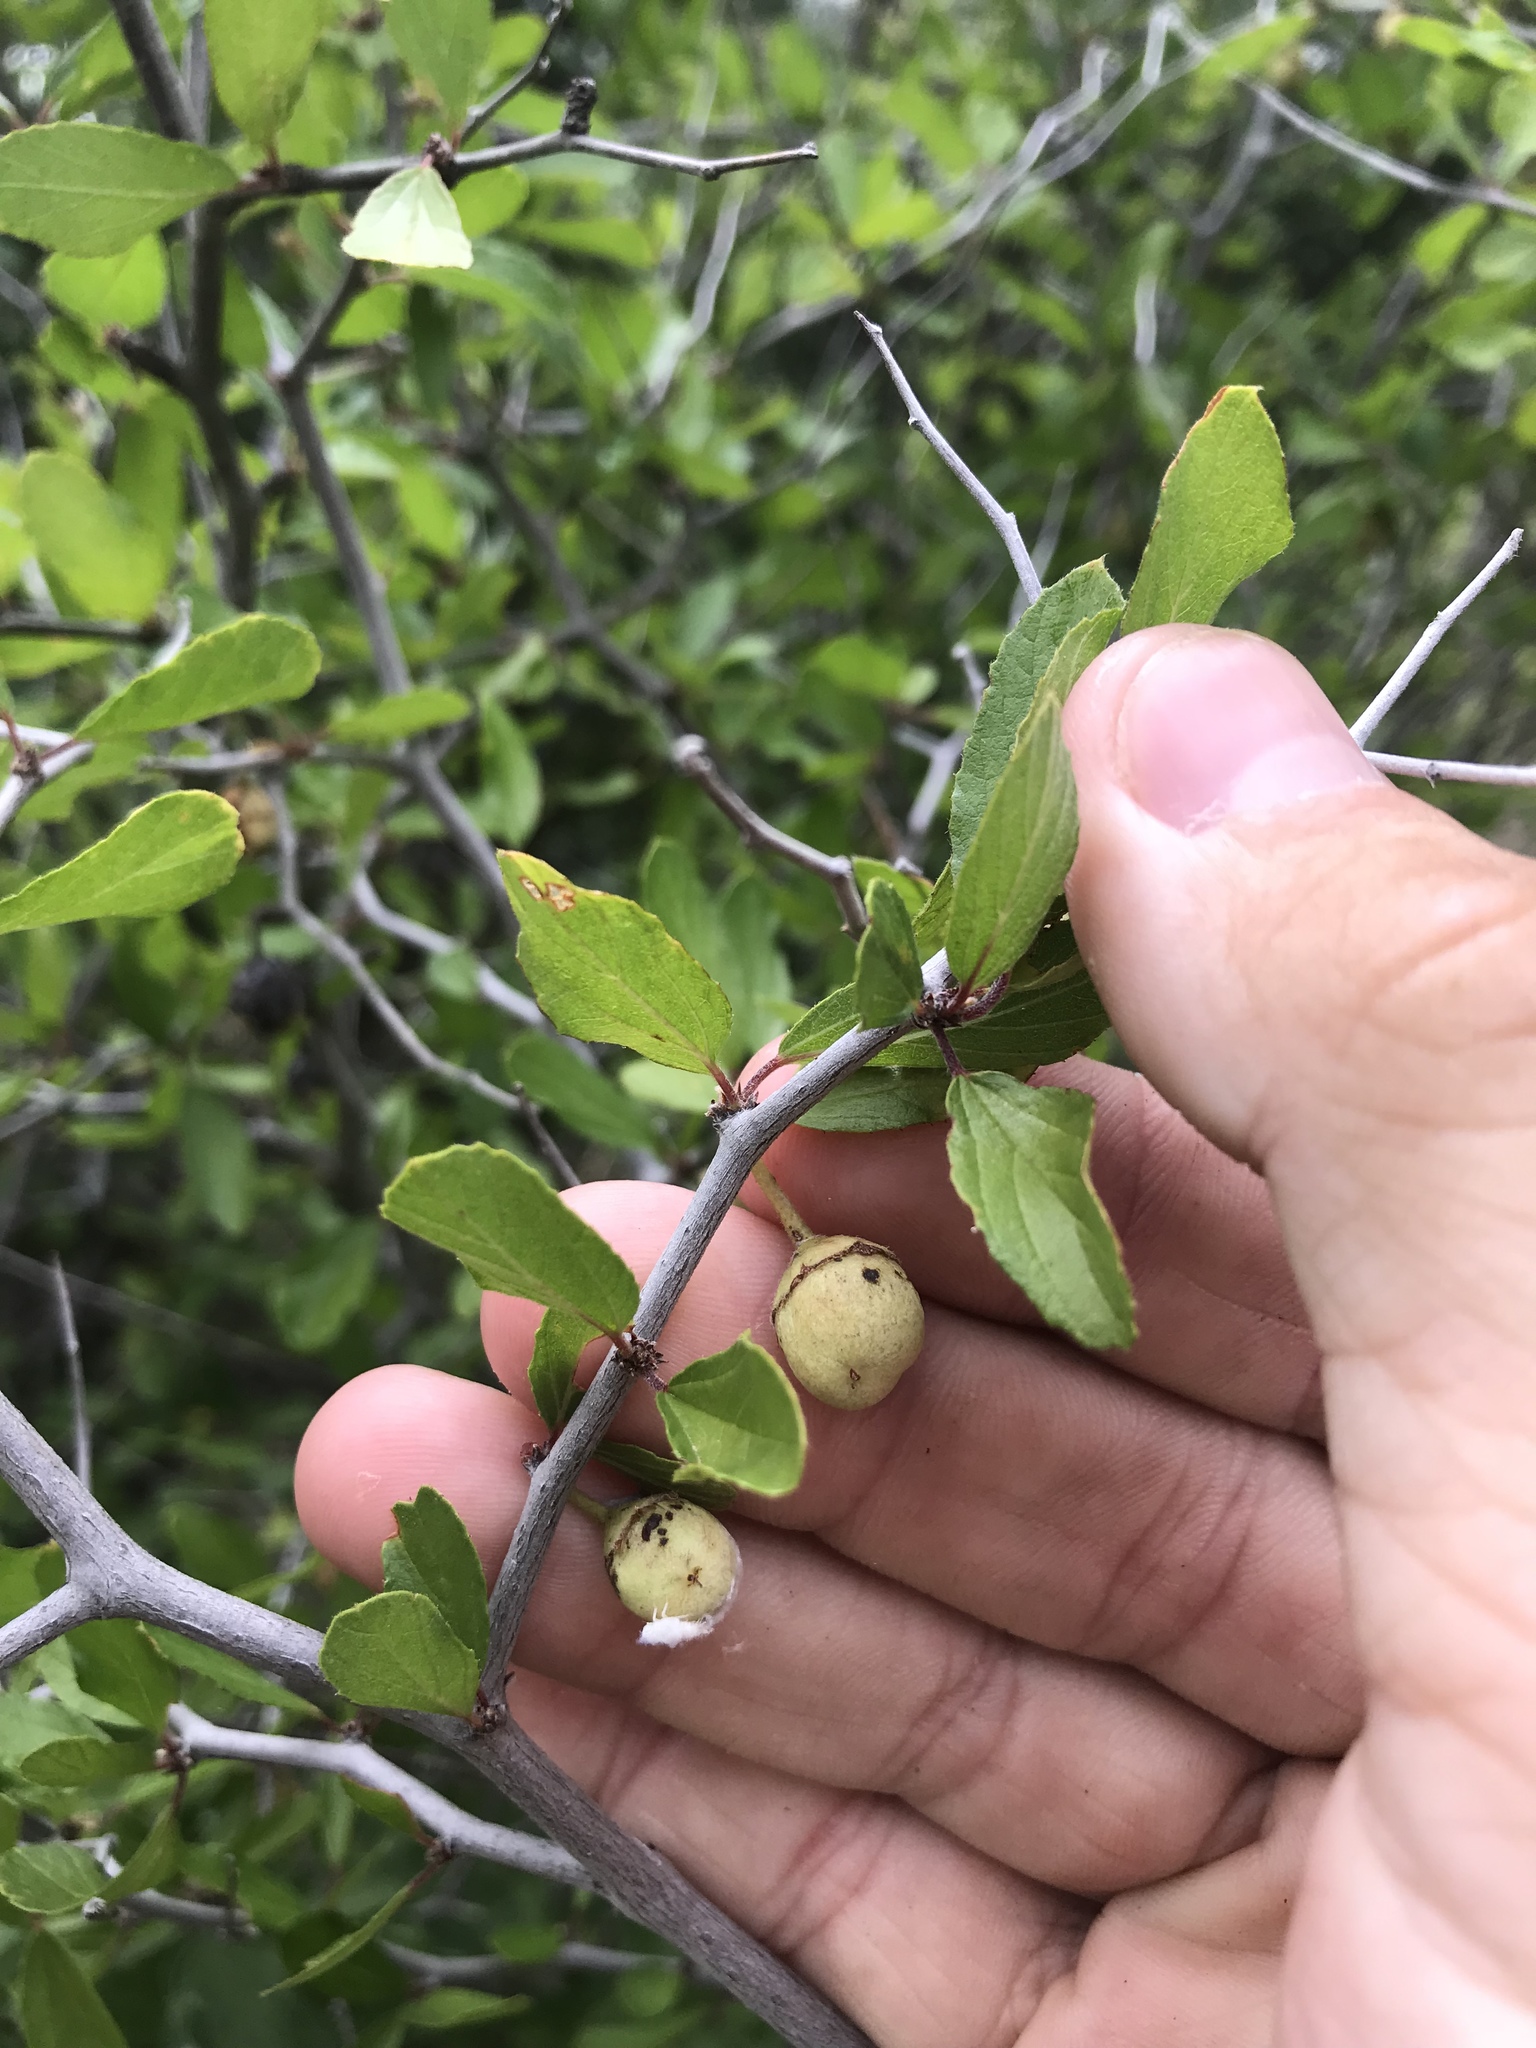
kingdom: Plantae
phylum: Tracheophyta
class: Magnoliopsida
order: Rosales
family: Rhamnaceae
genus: Colubrina
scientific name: Colubrina texensis
